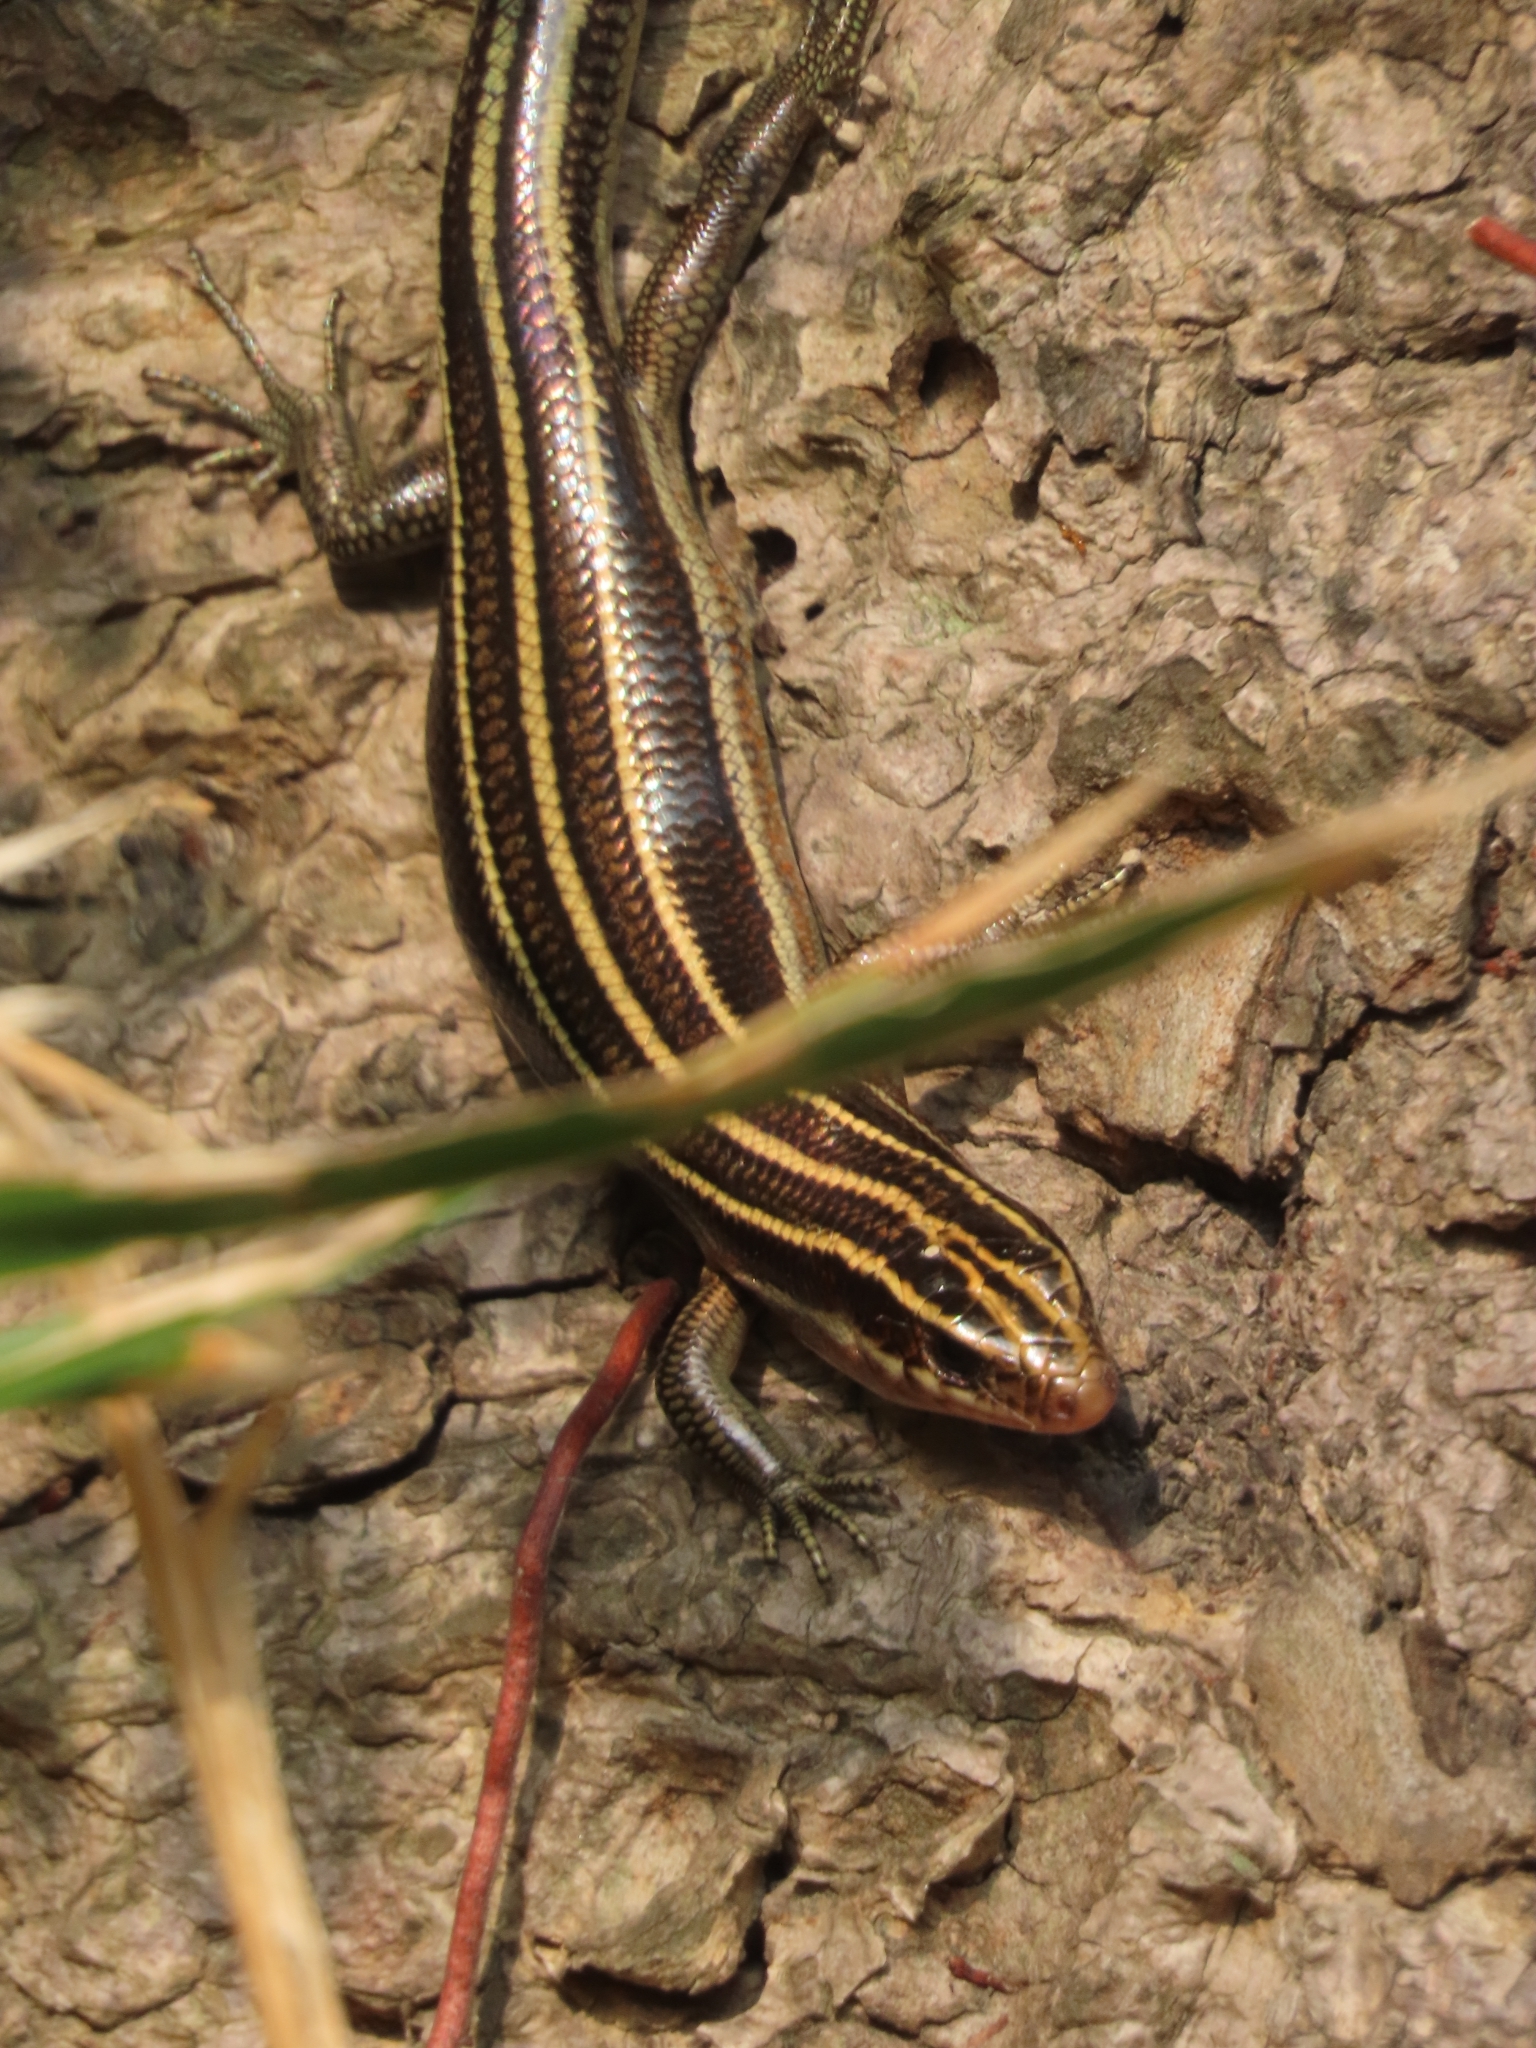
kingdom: Animalia
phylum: Chordata
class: Squamata
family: Scincidae
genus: Plestiodon
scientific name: Plestiodon elegans
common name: Shanghai elegant skink
